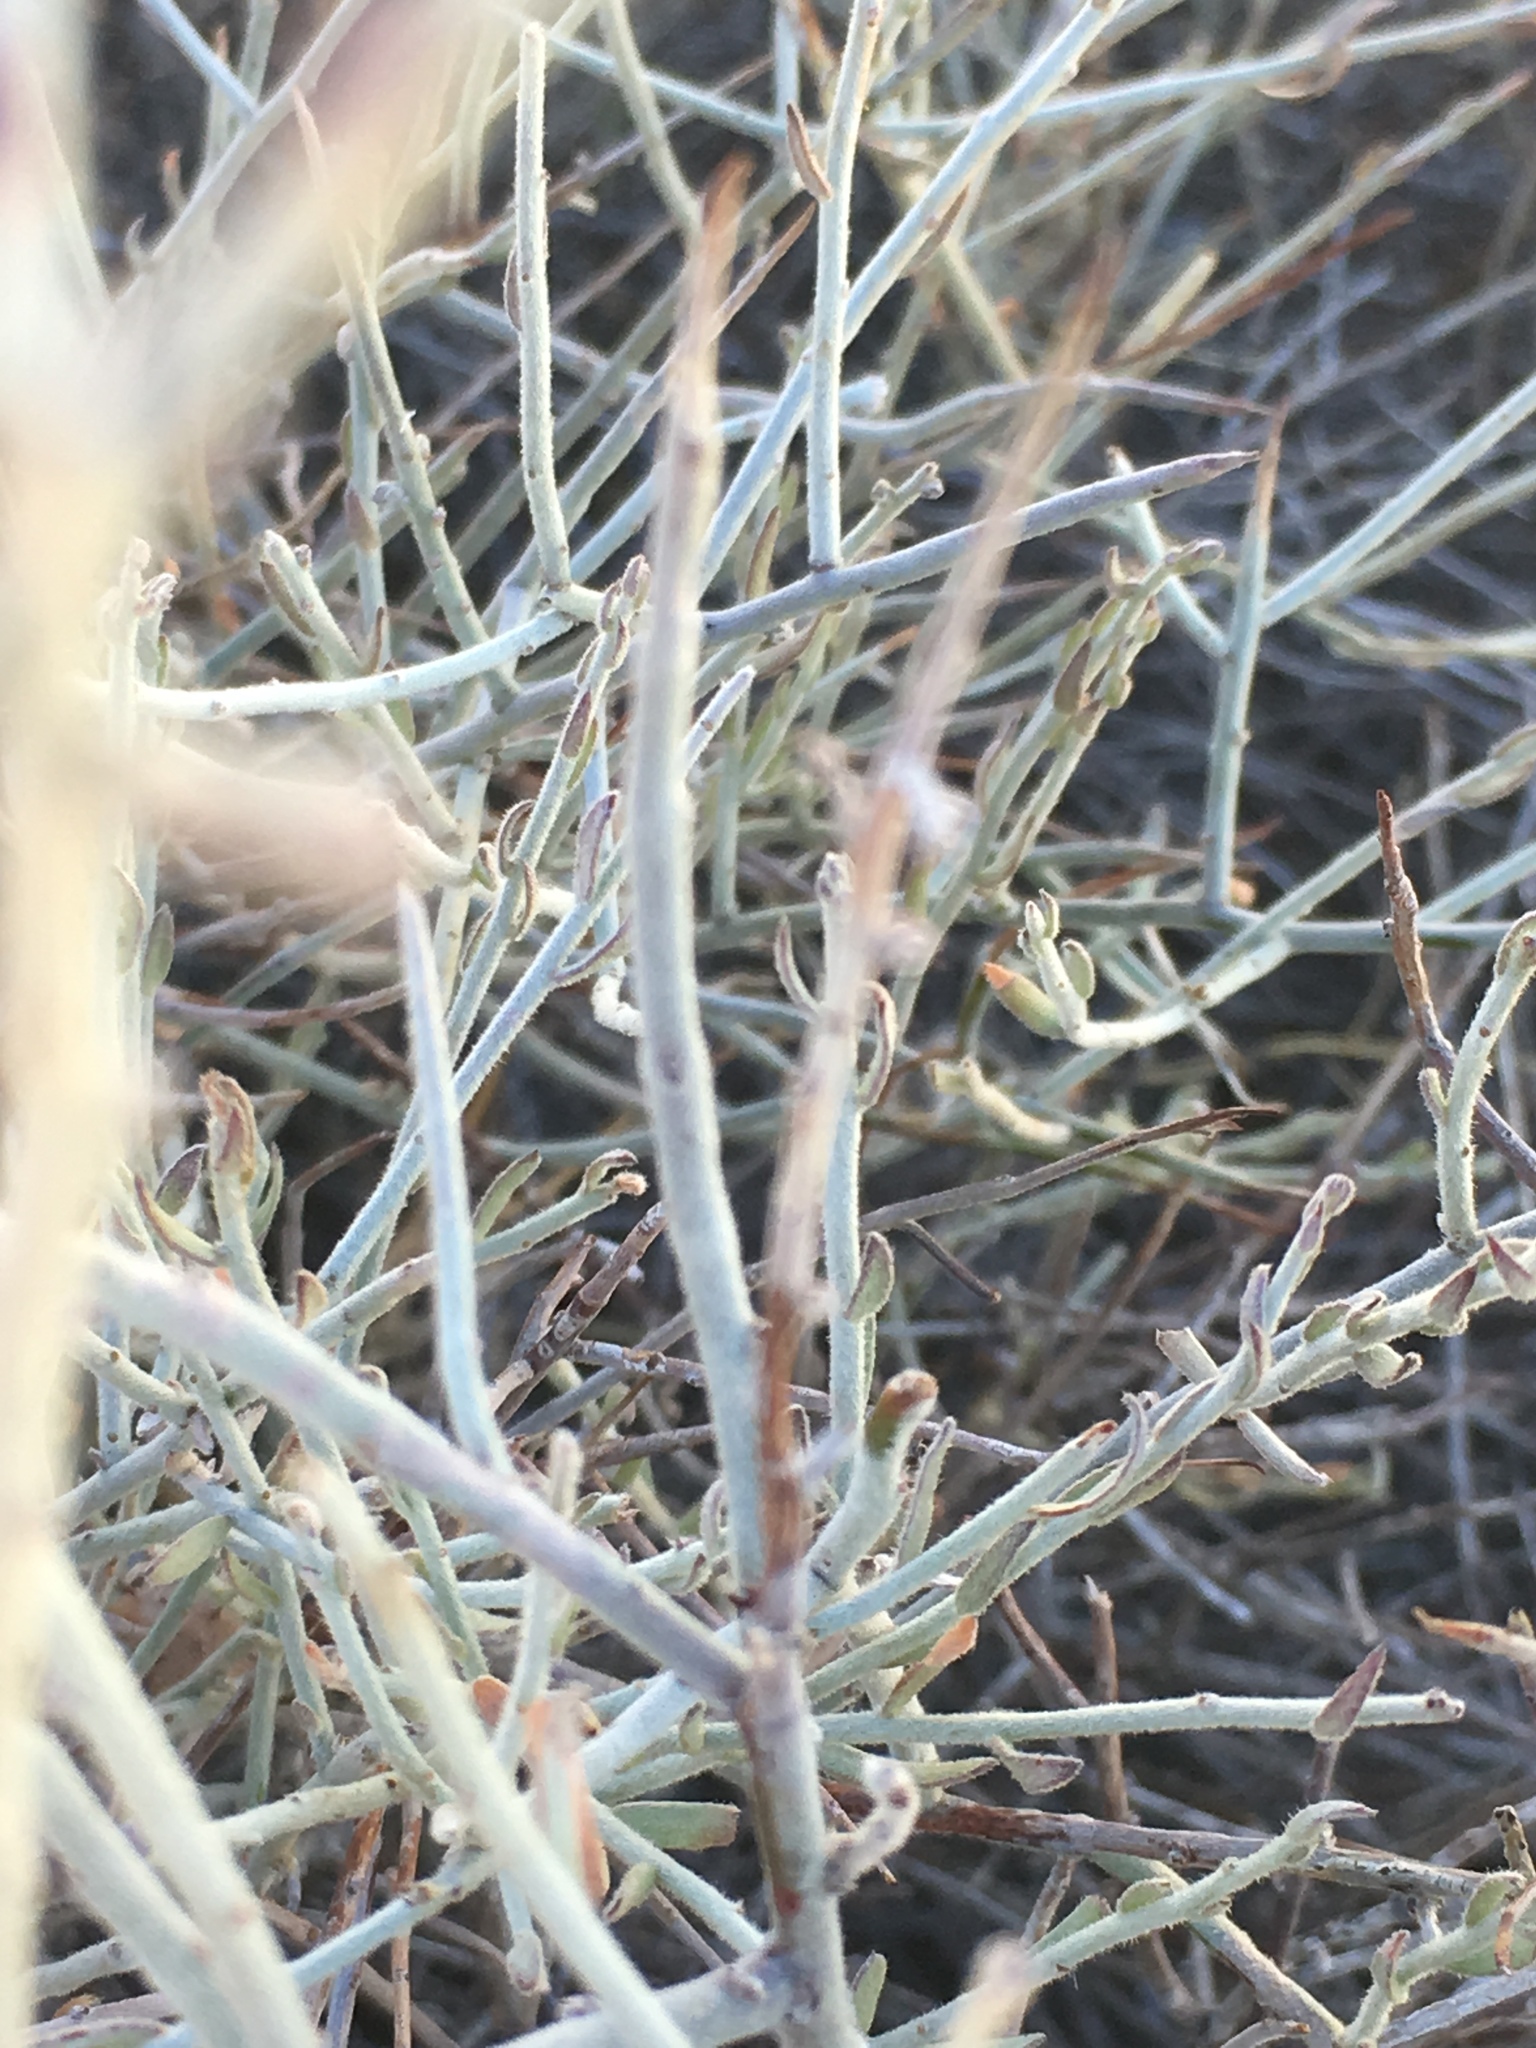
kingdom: Plantae
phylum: Tracheophyta
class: Magnoliopsida
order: Zygophyllales
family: Krameriaceae
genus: Krameria
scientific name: Krameria bicolor
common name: White ratany
